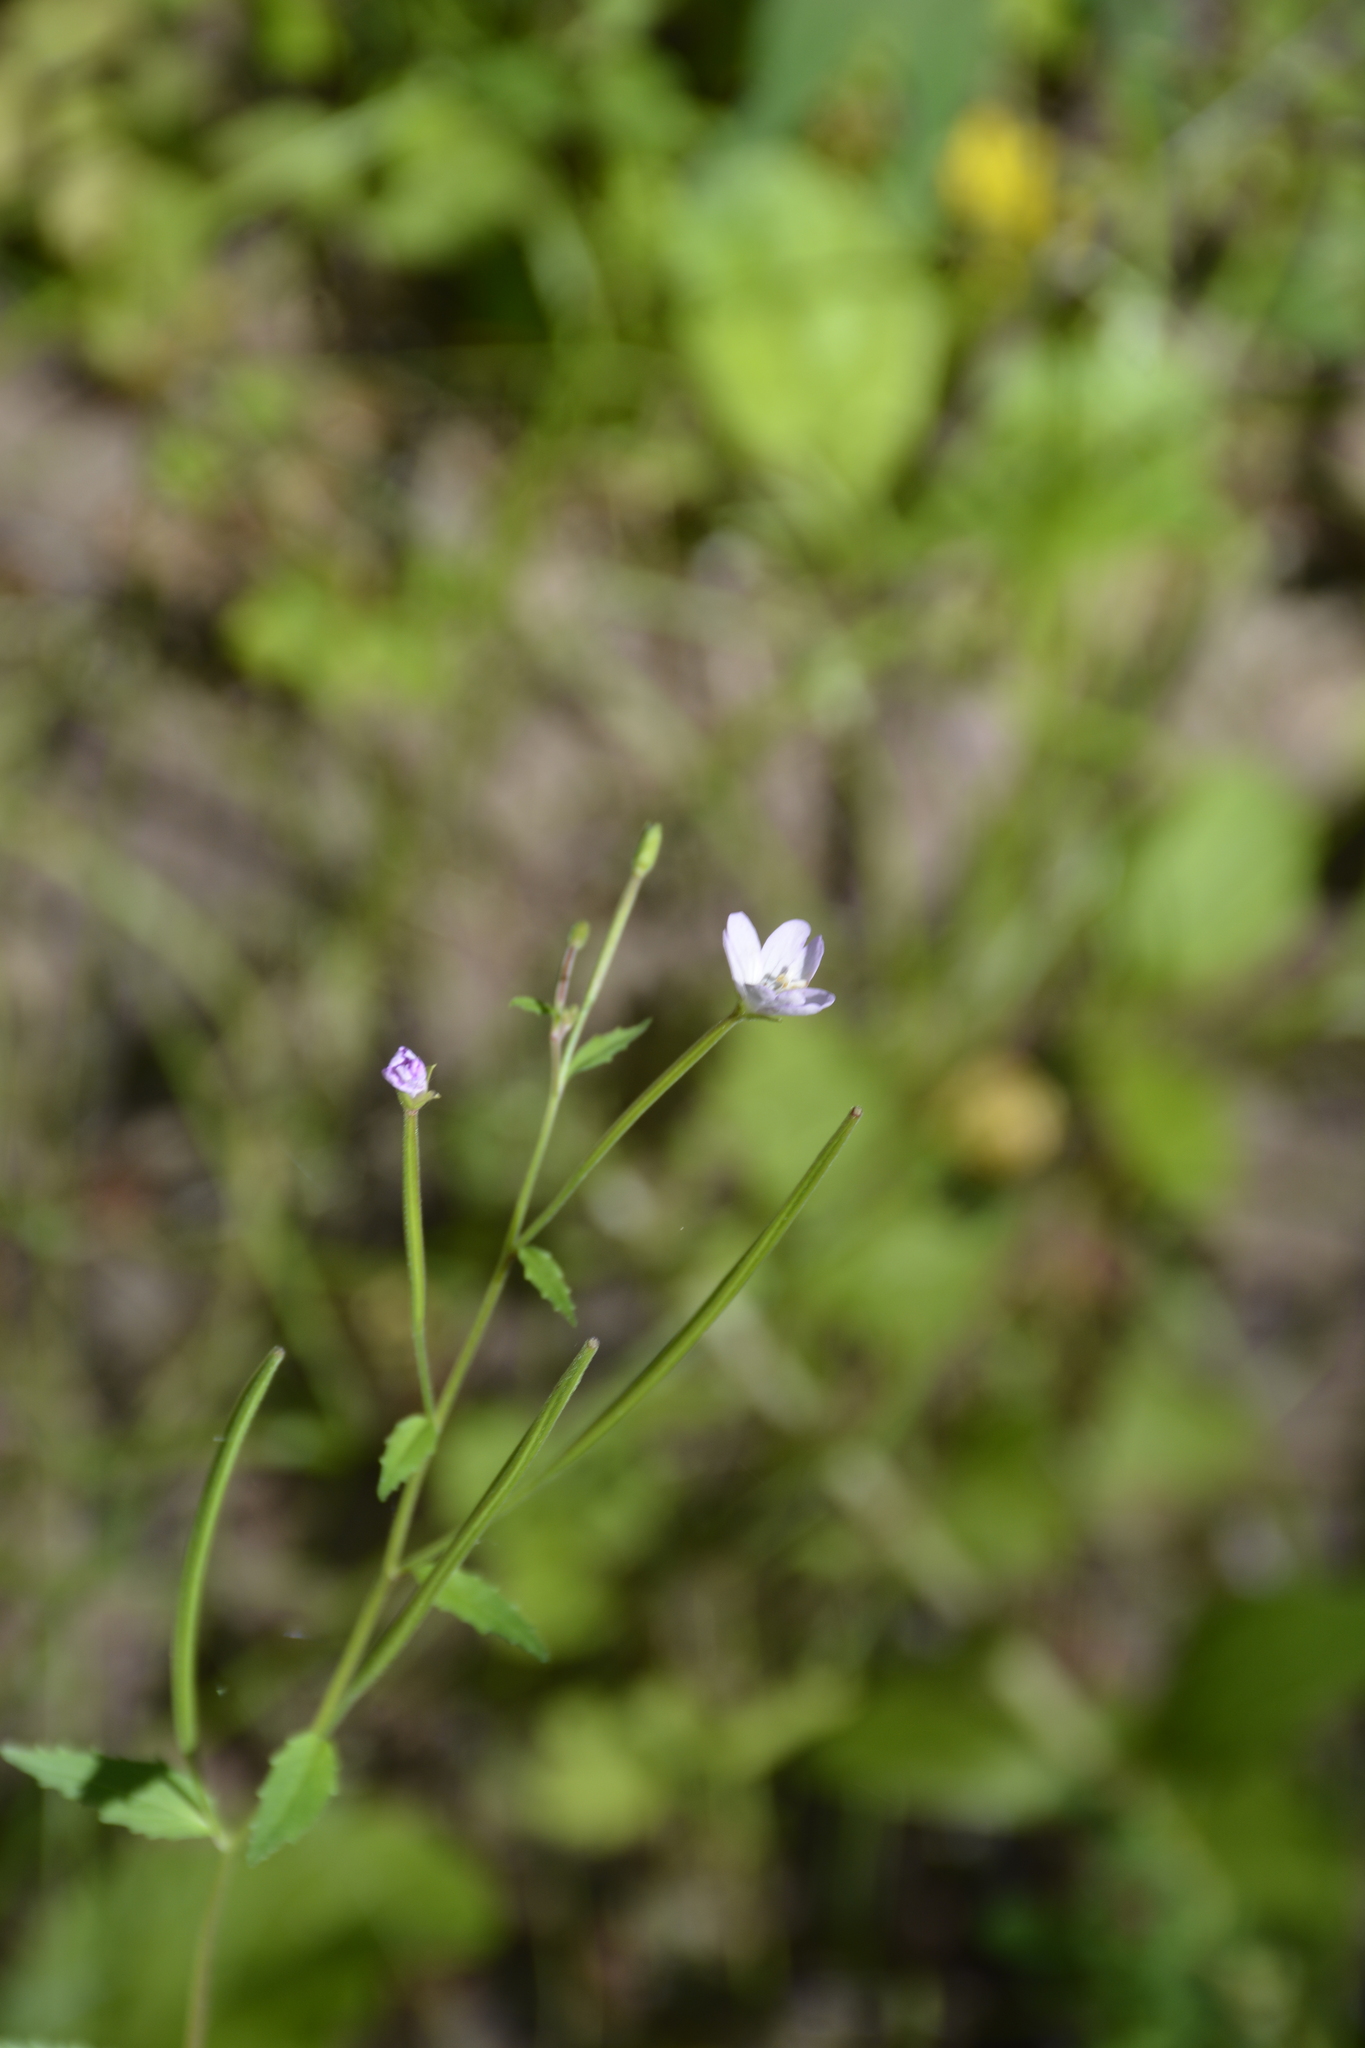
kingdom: Plantae
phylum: Tracheophyta
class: Magnoliopsida
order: Myrtales
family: Onagraceae
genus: Epilobium
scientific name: Epilobium montanum
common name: Broad-leaved willowherb
